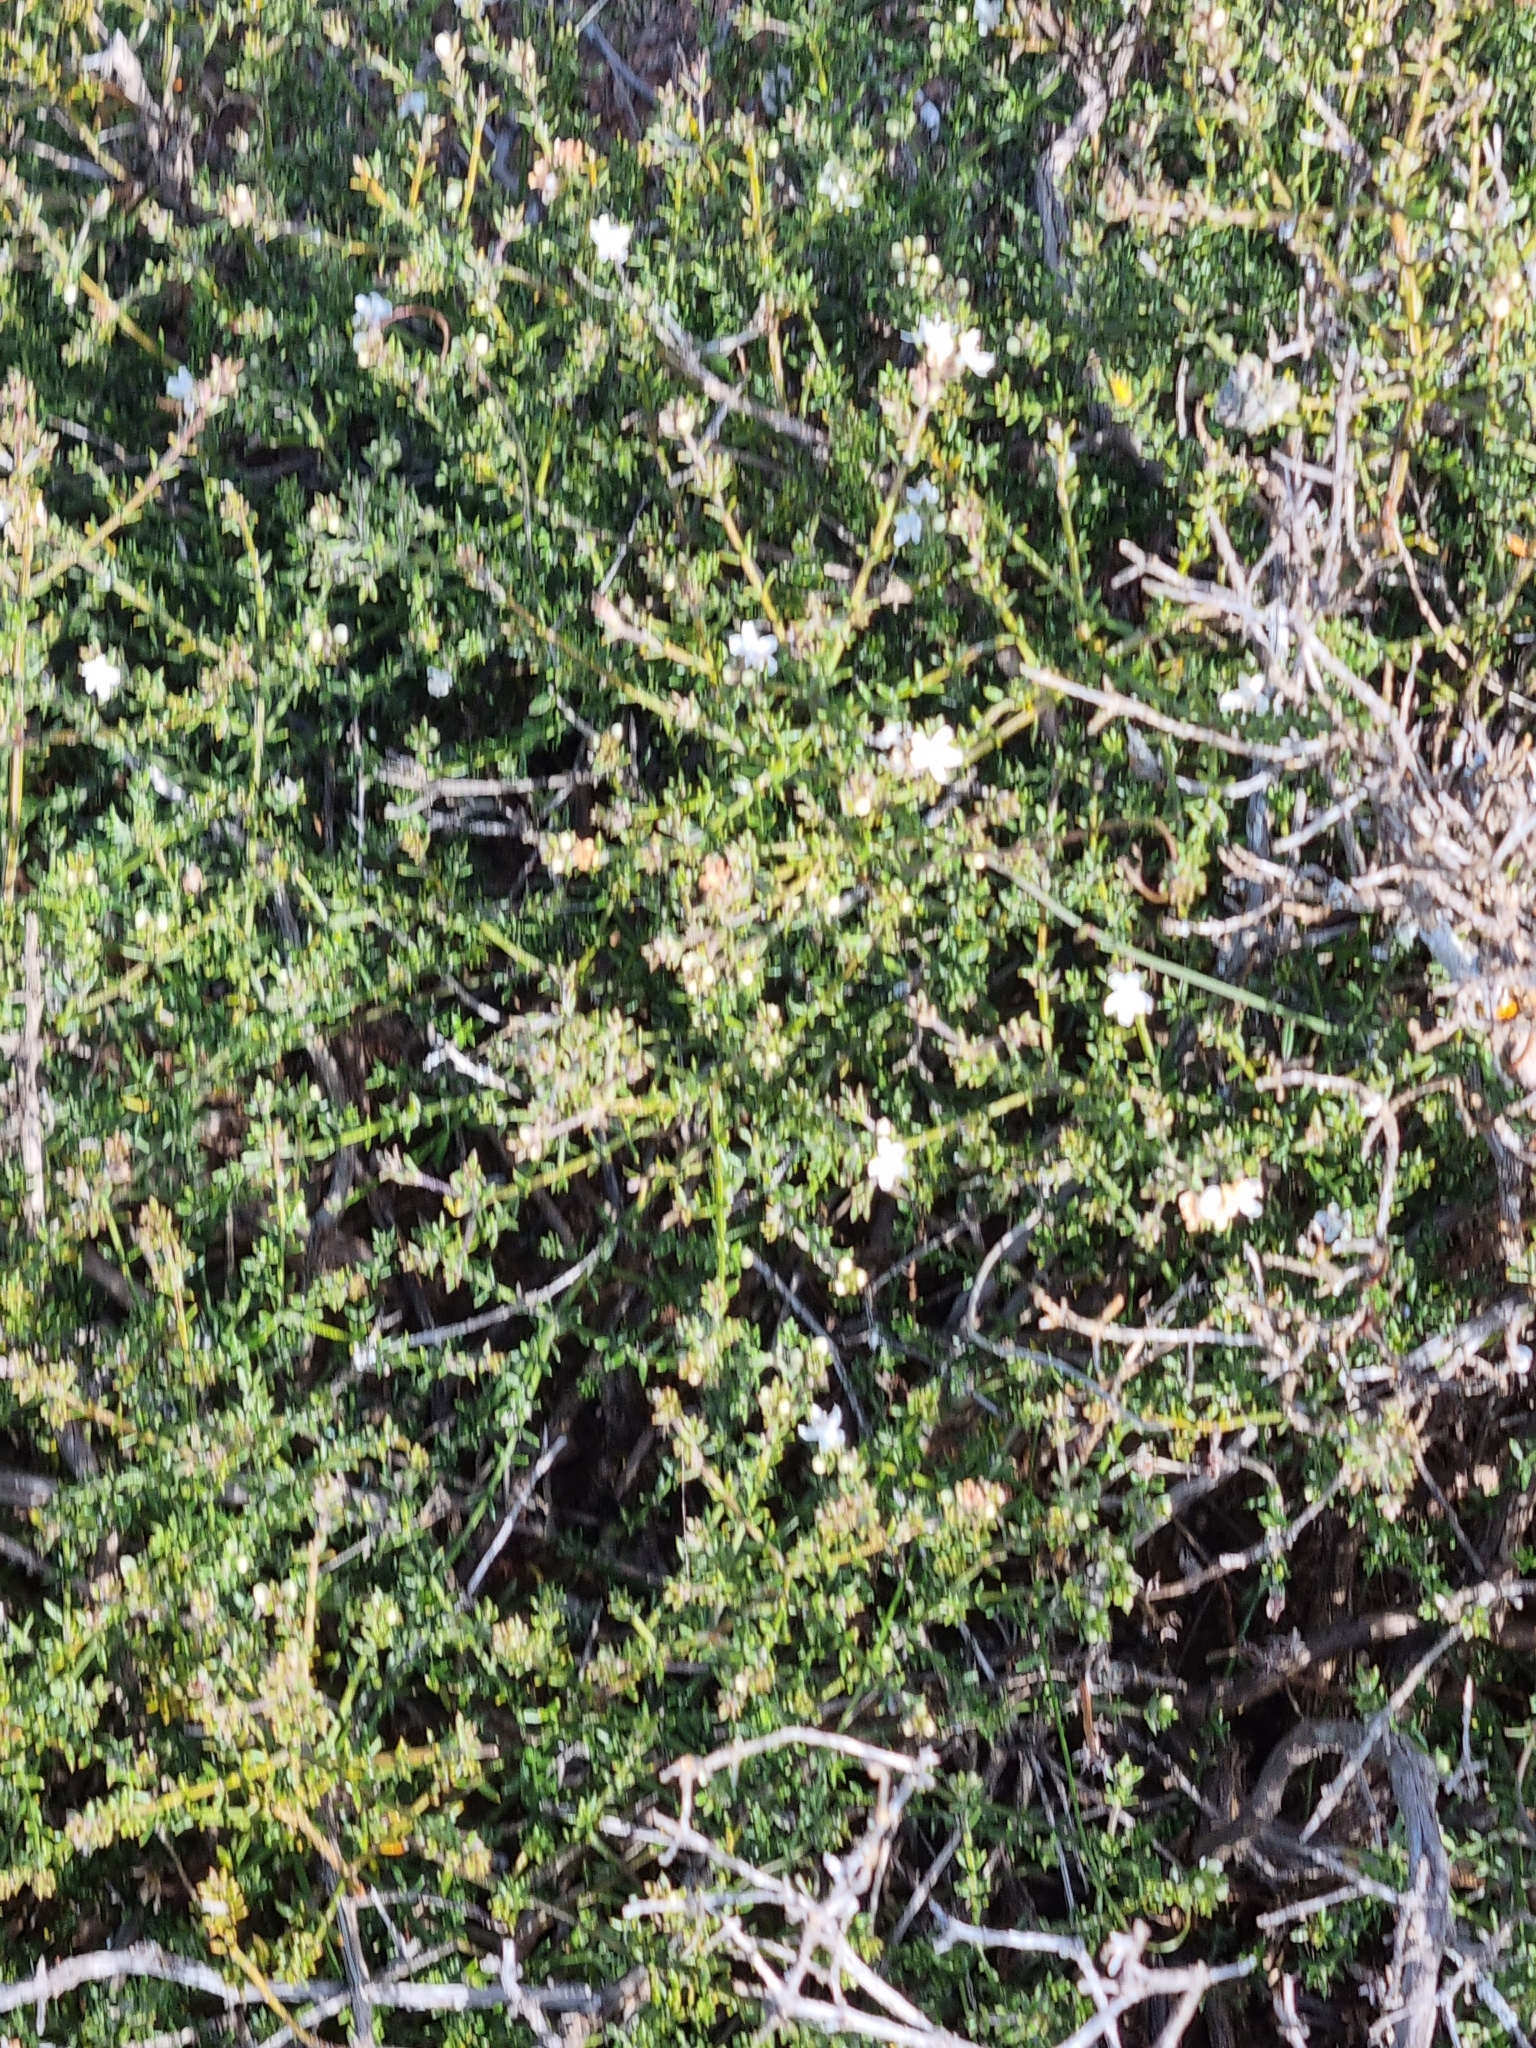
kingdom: Plantae
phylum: Tracheophyta
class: Magnoliopsida
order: Lamiales
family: Lamiaceae
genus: Westringia
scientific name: Westringia rigida
